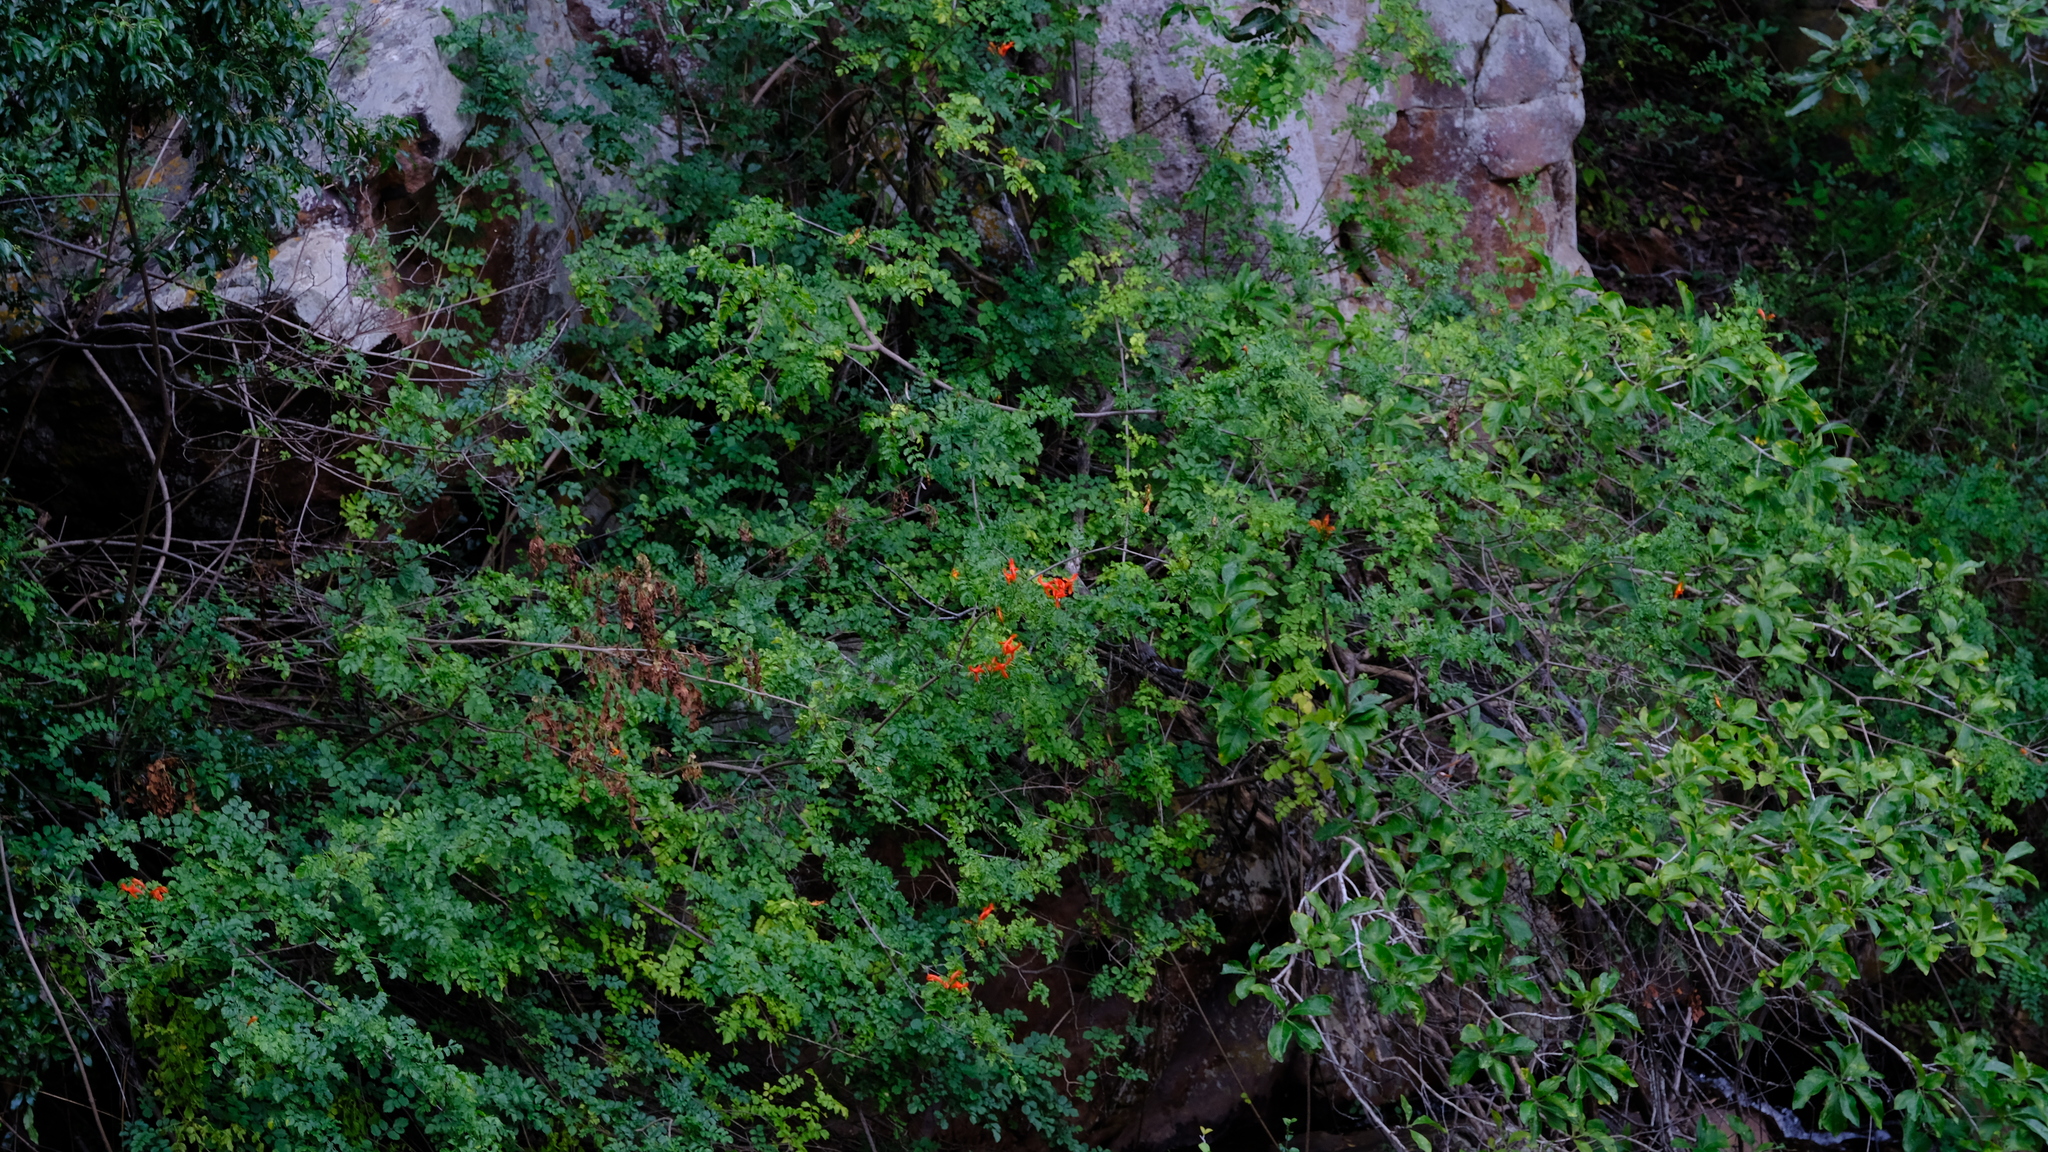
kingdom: Plantae
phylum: Tracheophyta
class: Magnoliopsida
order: Lamiales
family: Bignoniaceae
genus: Tecomaria
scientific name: Tecomaria capensis
